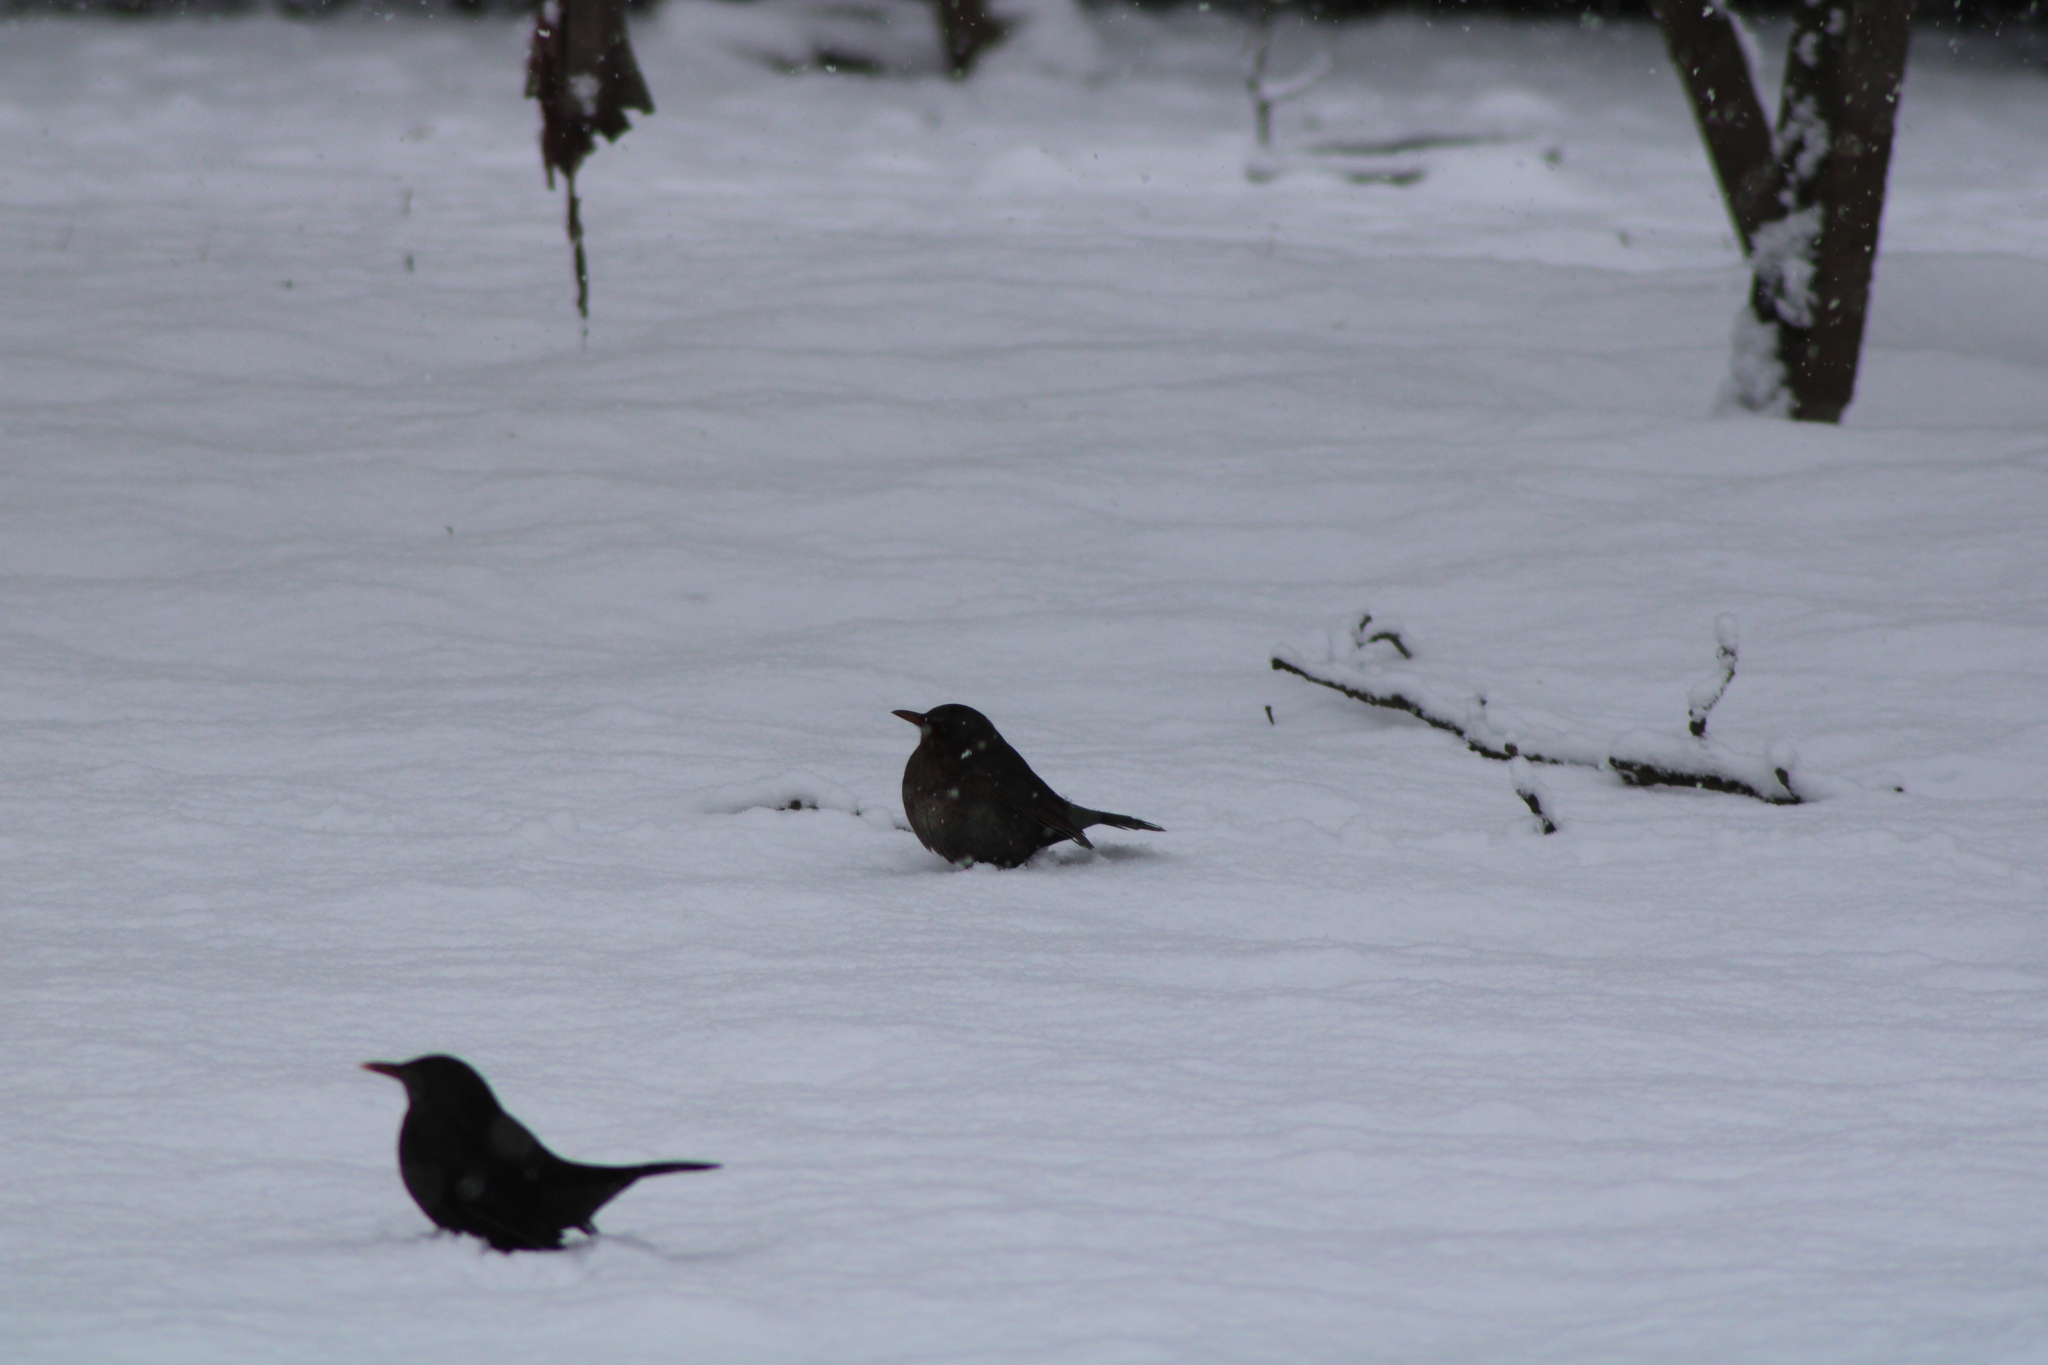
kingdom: Animalia
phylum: Chordata
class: Aves
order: Passeriformes
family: Turdidae
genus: Turdus
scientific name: Turdus merula
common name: Common blackbird
